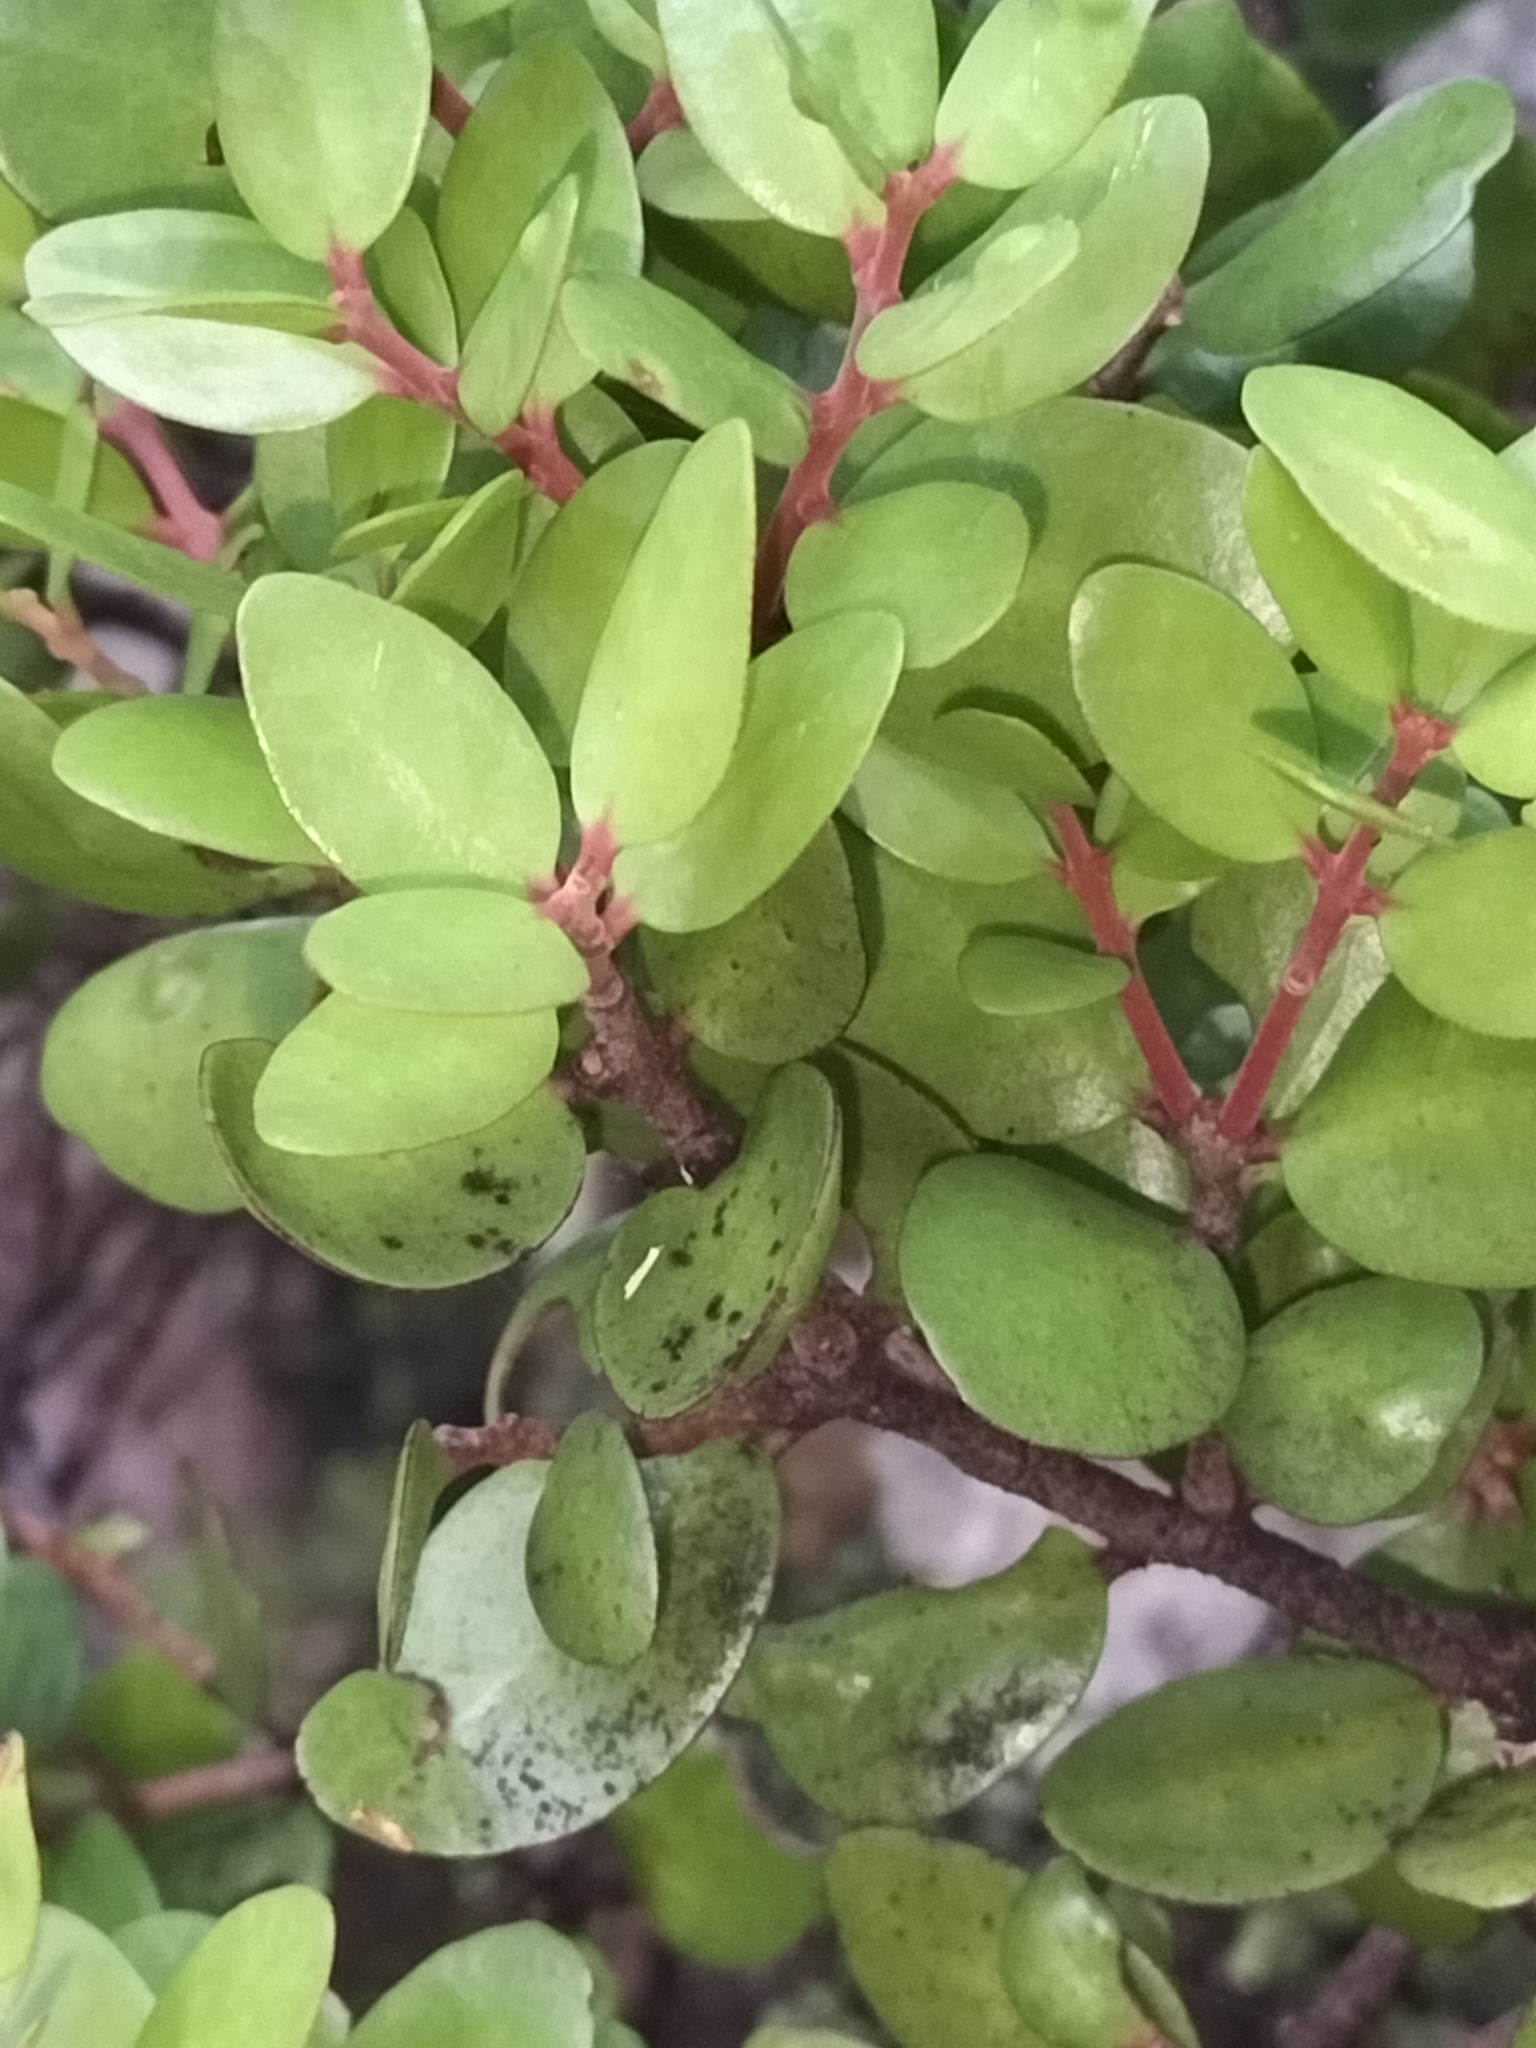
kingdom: Plantae
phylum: Tracheophyta
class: Magnoliopsida
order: Santalales
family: Loranthaceae
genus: Peraxilla
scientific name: Peraxilla tetrapetala
